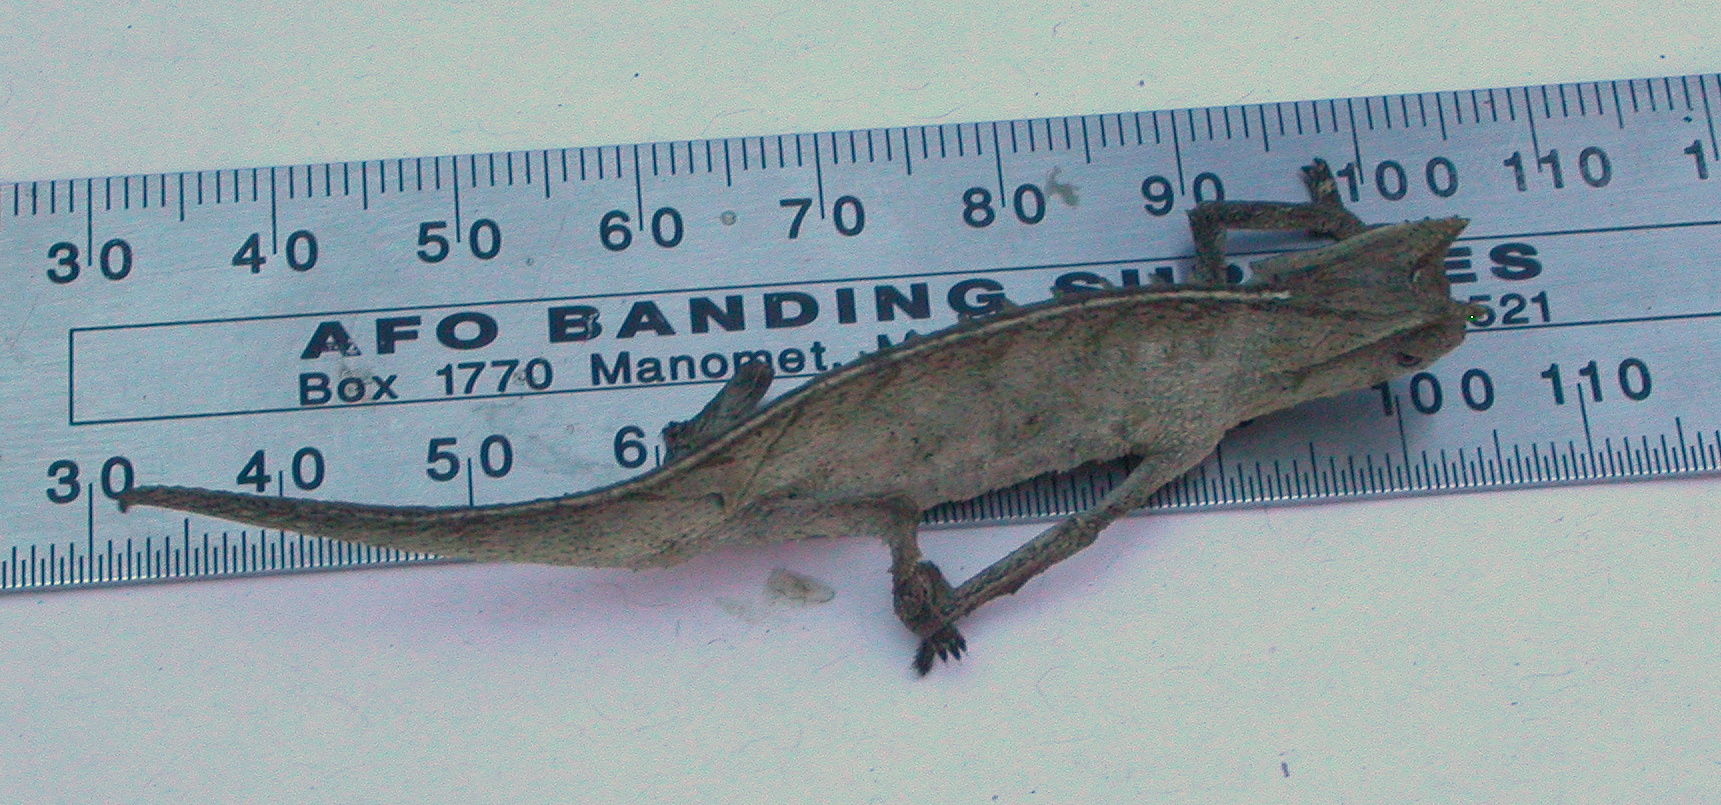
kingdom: Animalia
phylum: Chordata
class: Squamata
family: Chamaeleonidae
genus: Brookesia
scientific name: Brookesia superciliaris
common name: Brown leaf chameleon
